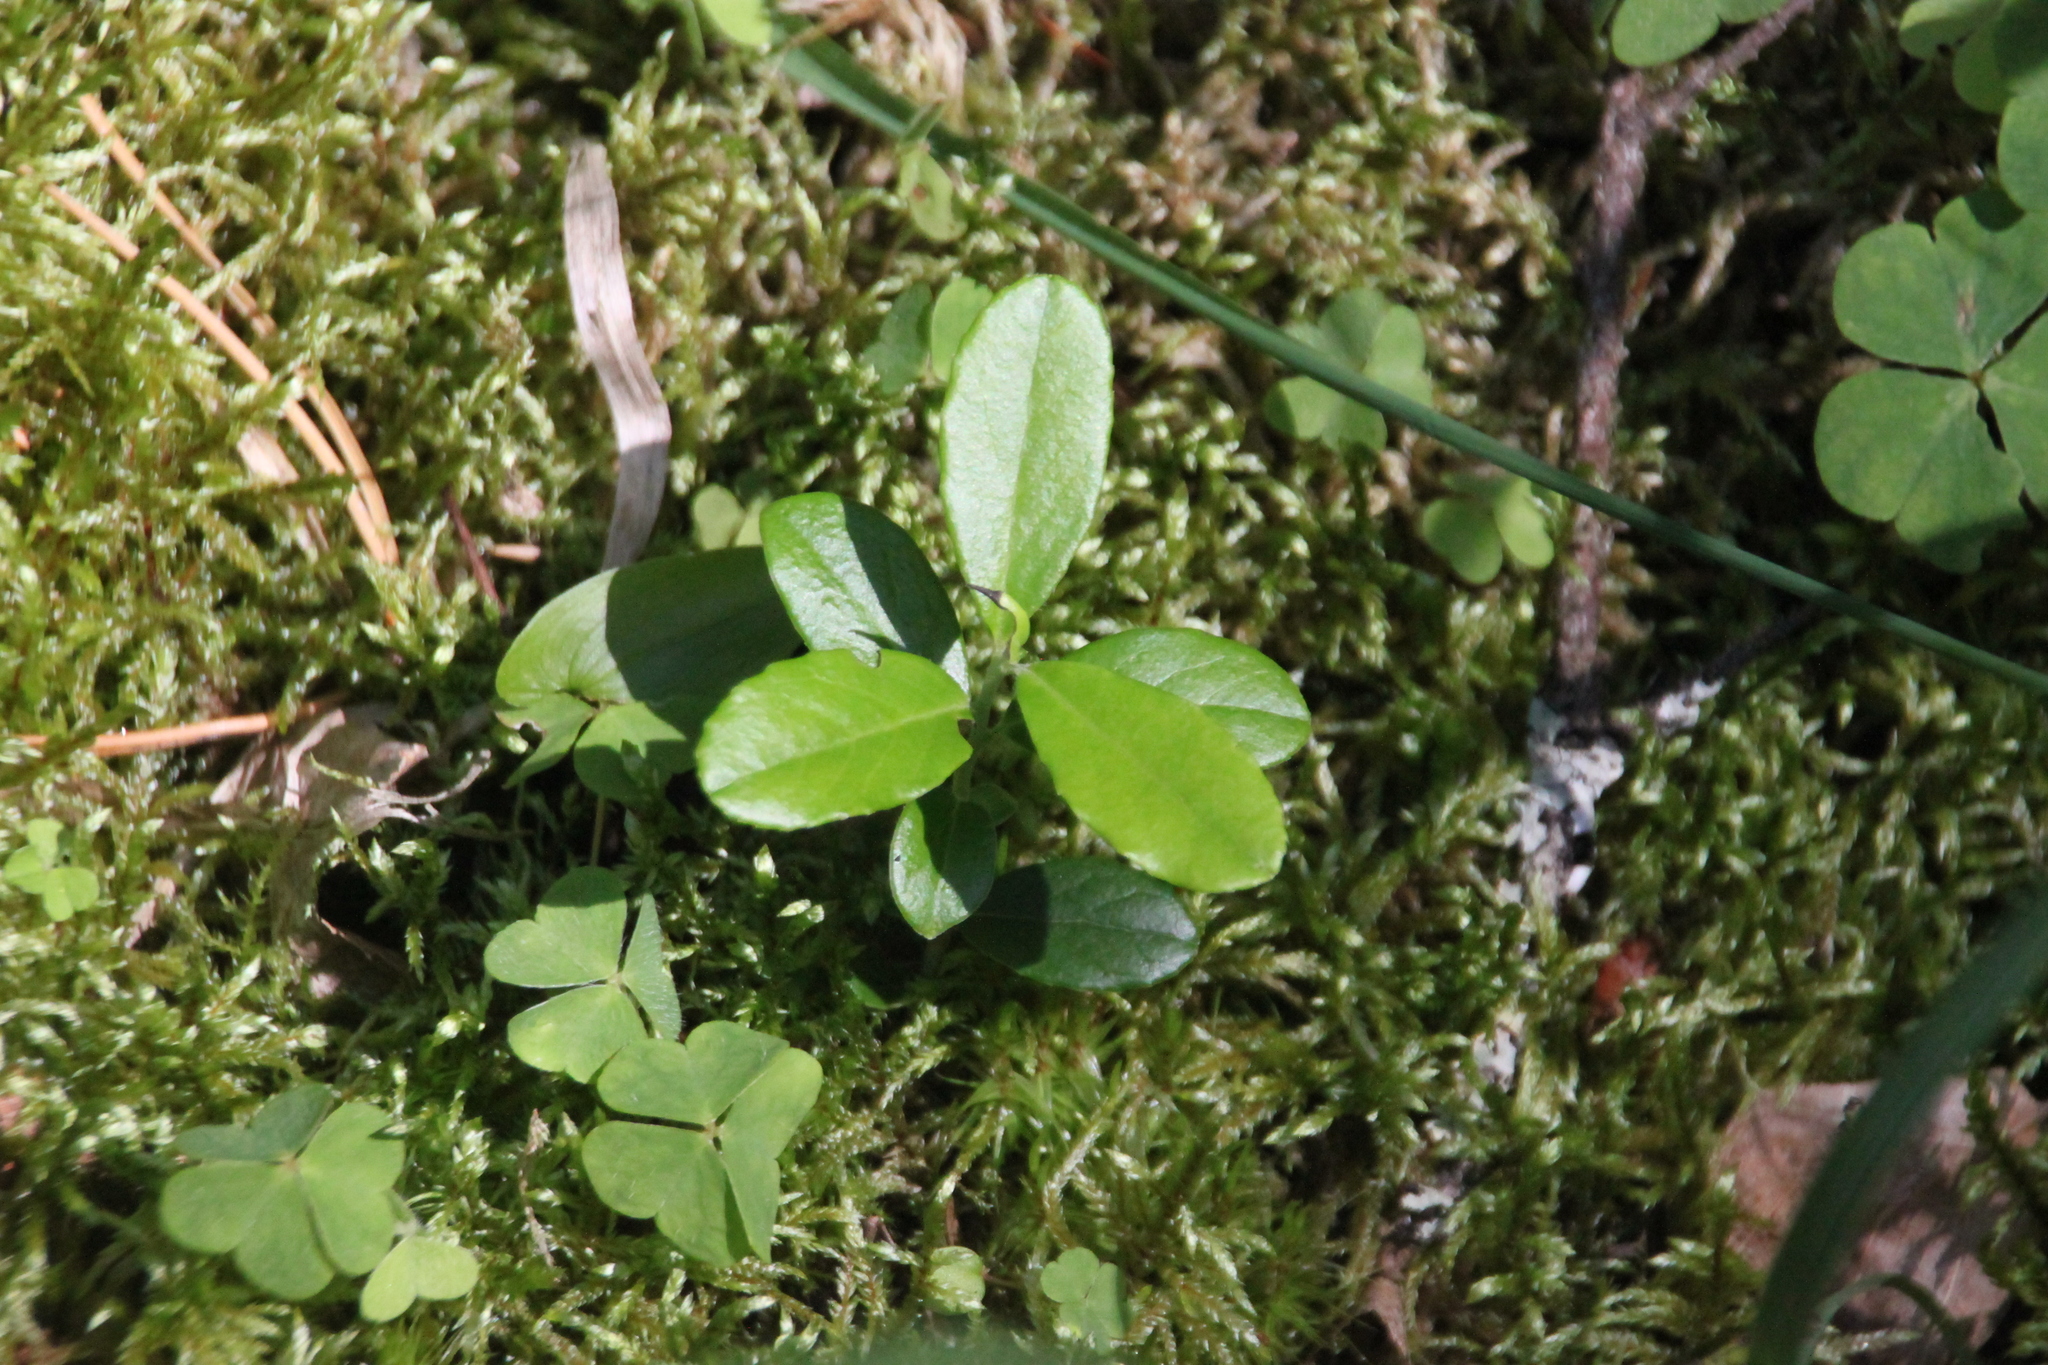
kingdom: Plantae
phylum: Tracheophyta
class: Magnoliopsida
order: Ericales
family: Ericaceae
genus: Vaccinium
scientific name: Vaccinium vitis-idaea
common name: Cowberry
